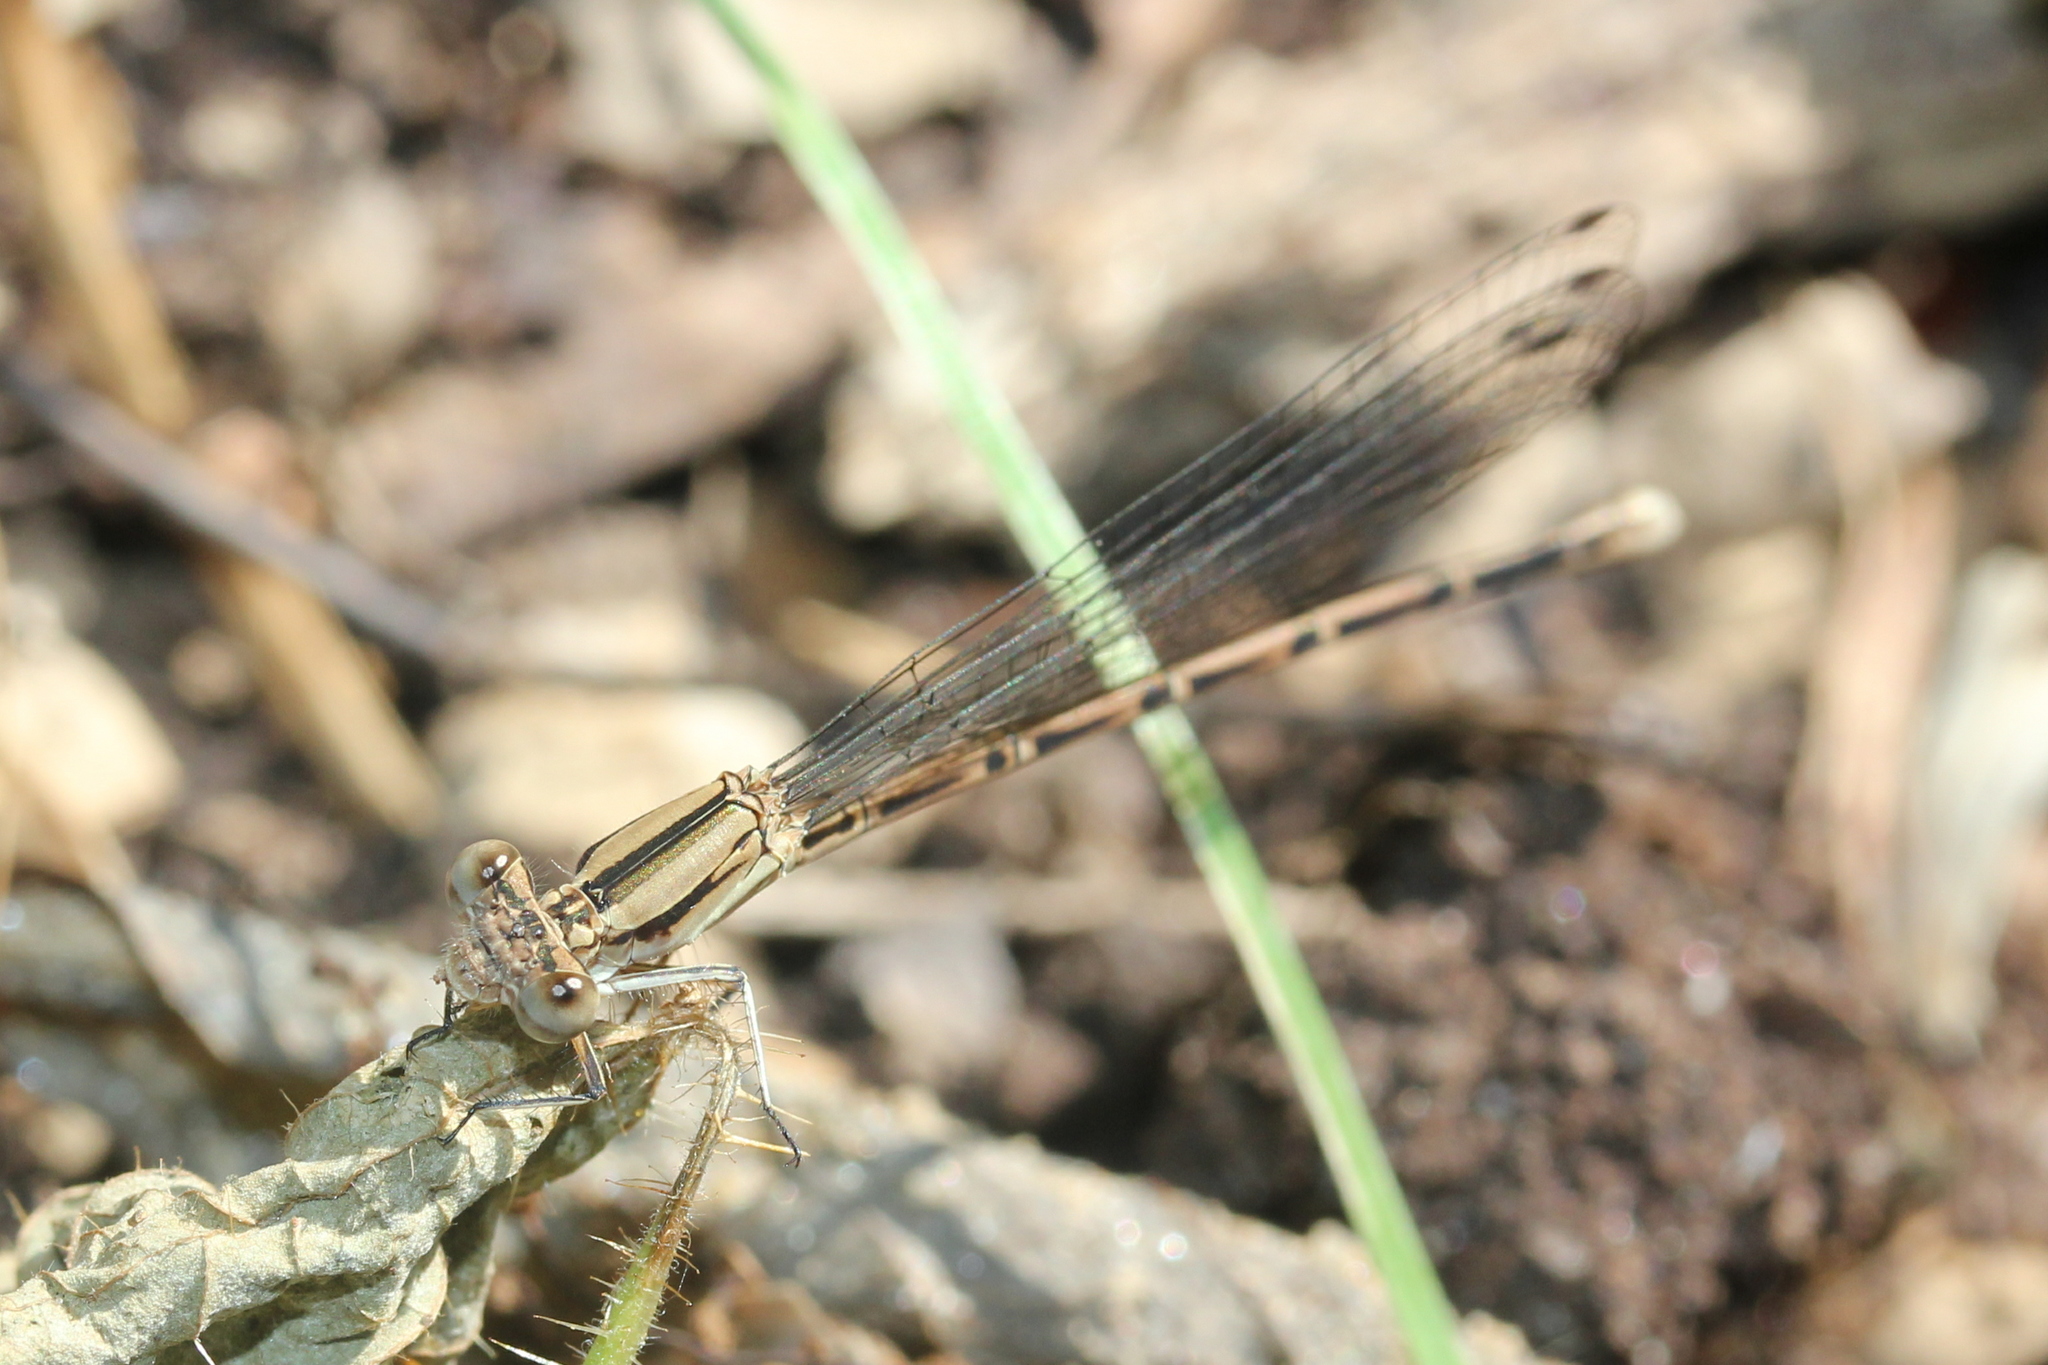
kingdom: Animalia
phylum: Arthropoda
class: Insecta
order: Odonata
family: Coenagrionidae
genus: Argia
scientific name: Argia fumipennis
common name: Variable dancer
